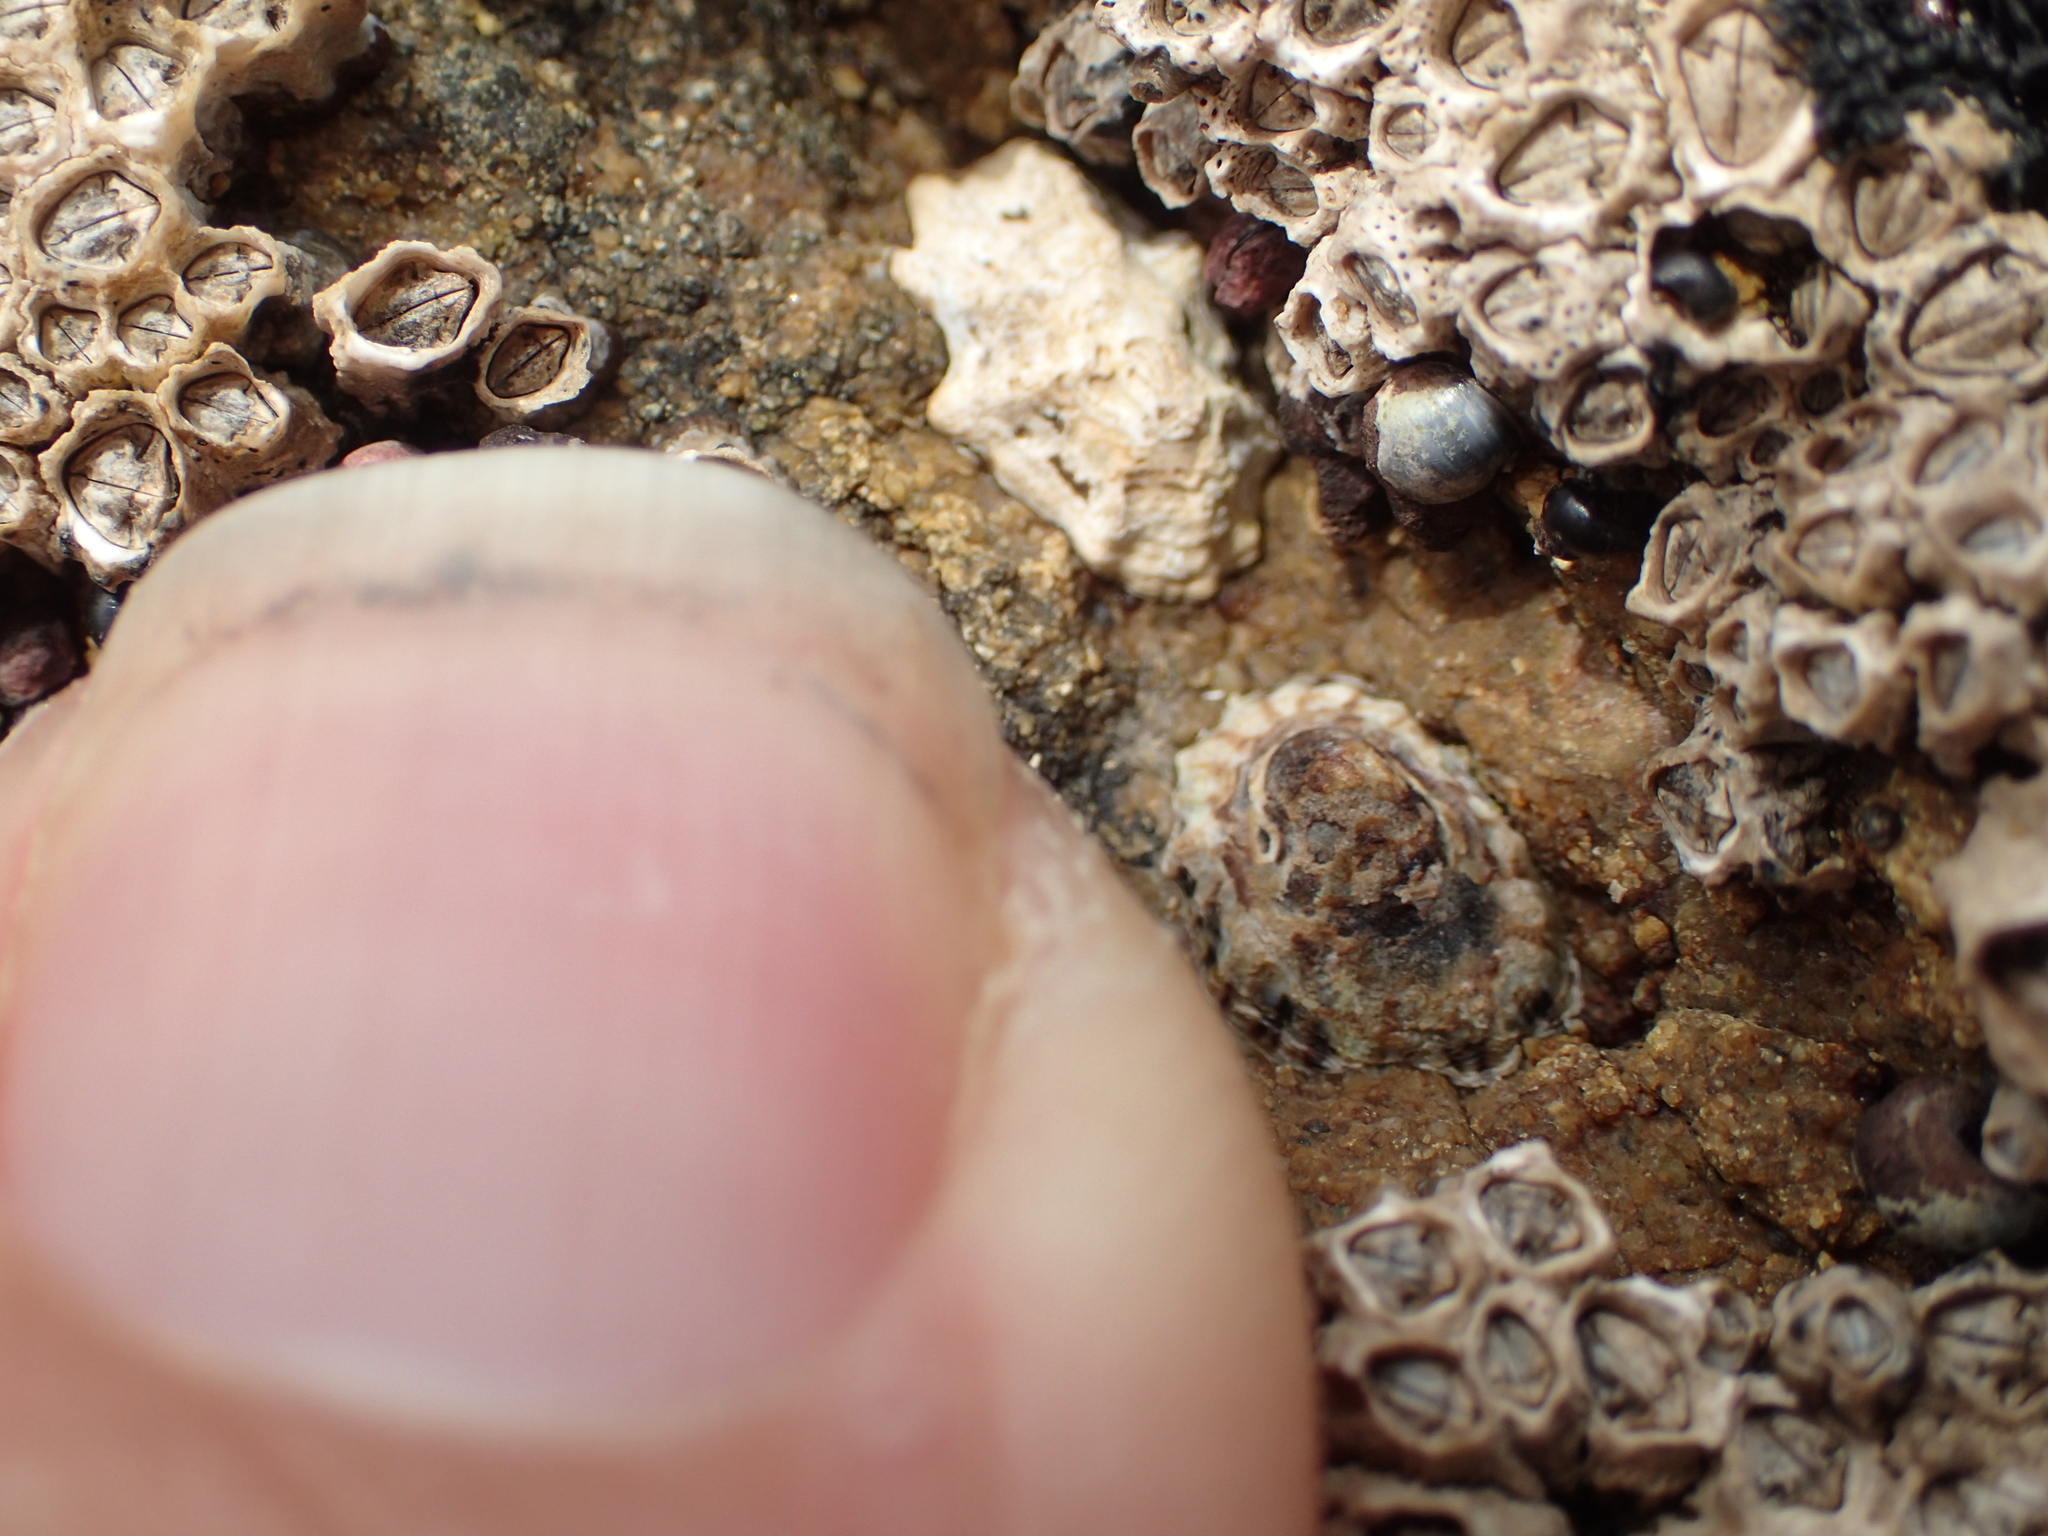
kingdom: Animalia
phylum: Mollusca
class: Gastropoda
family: Lottiidae
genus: Patelloida
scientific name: Patelloida corticata
